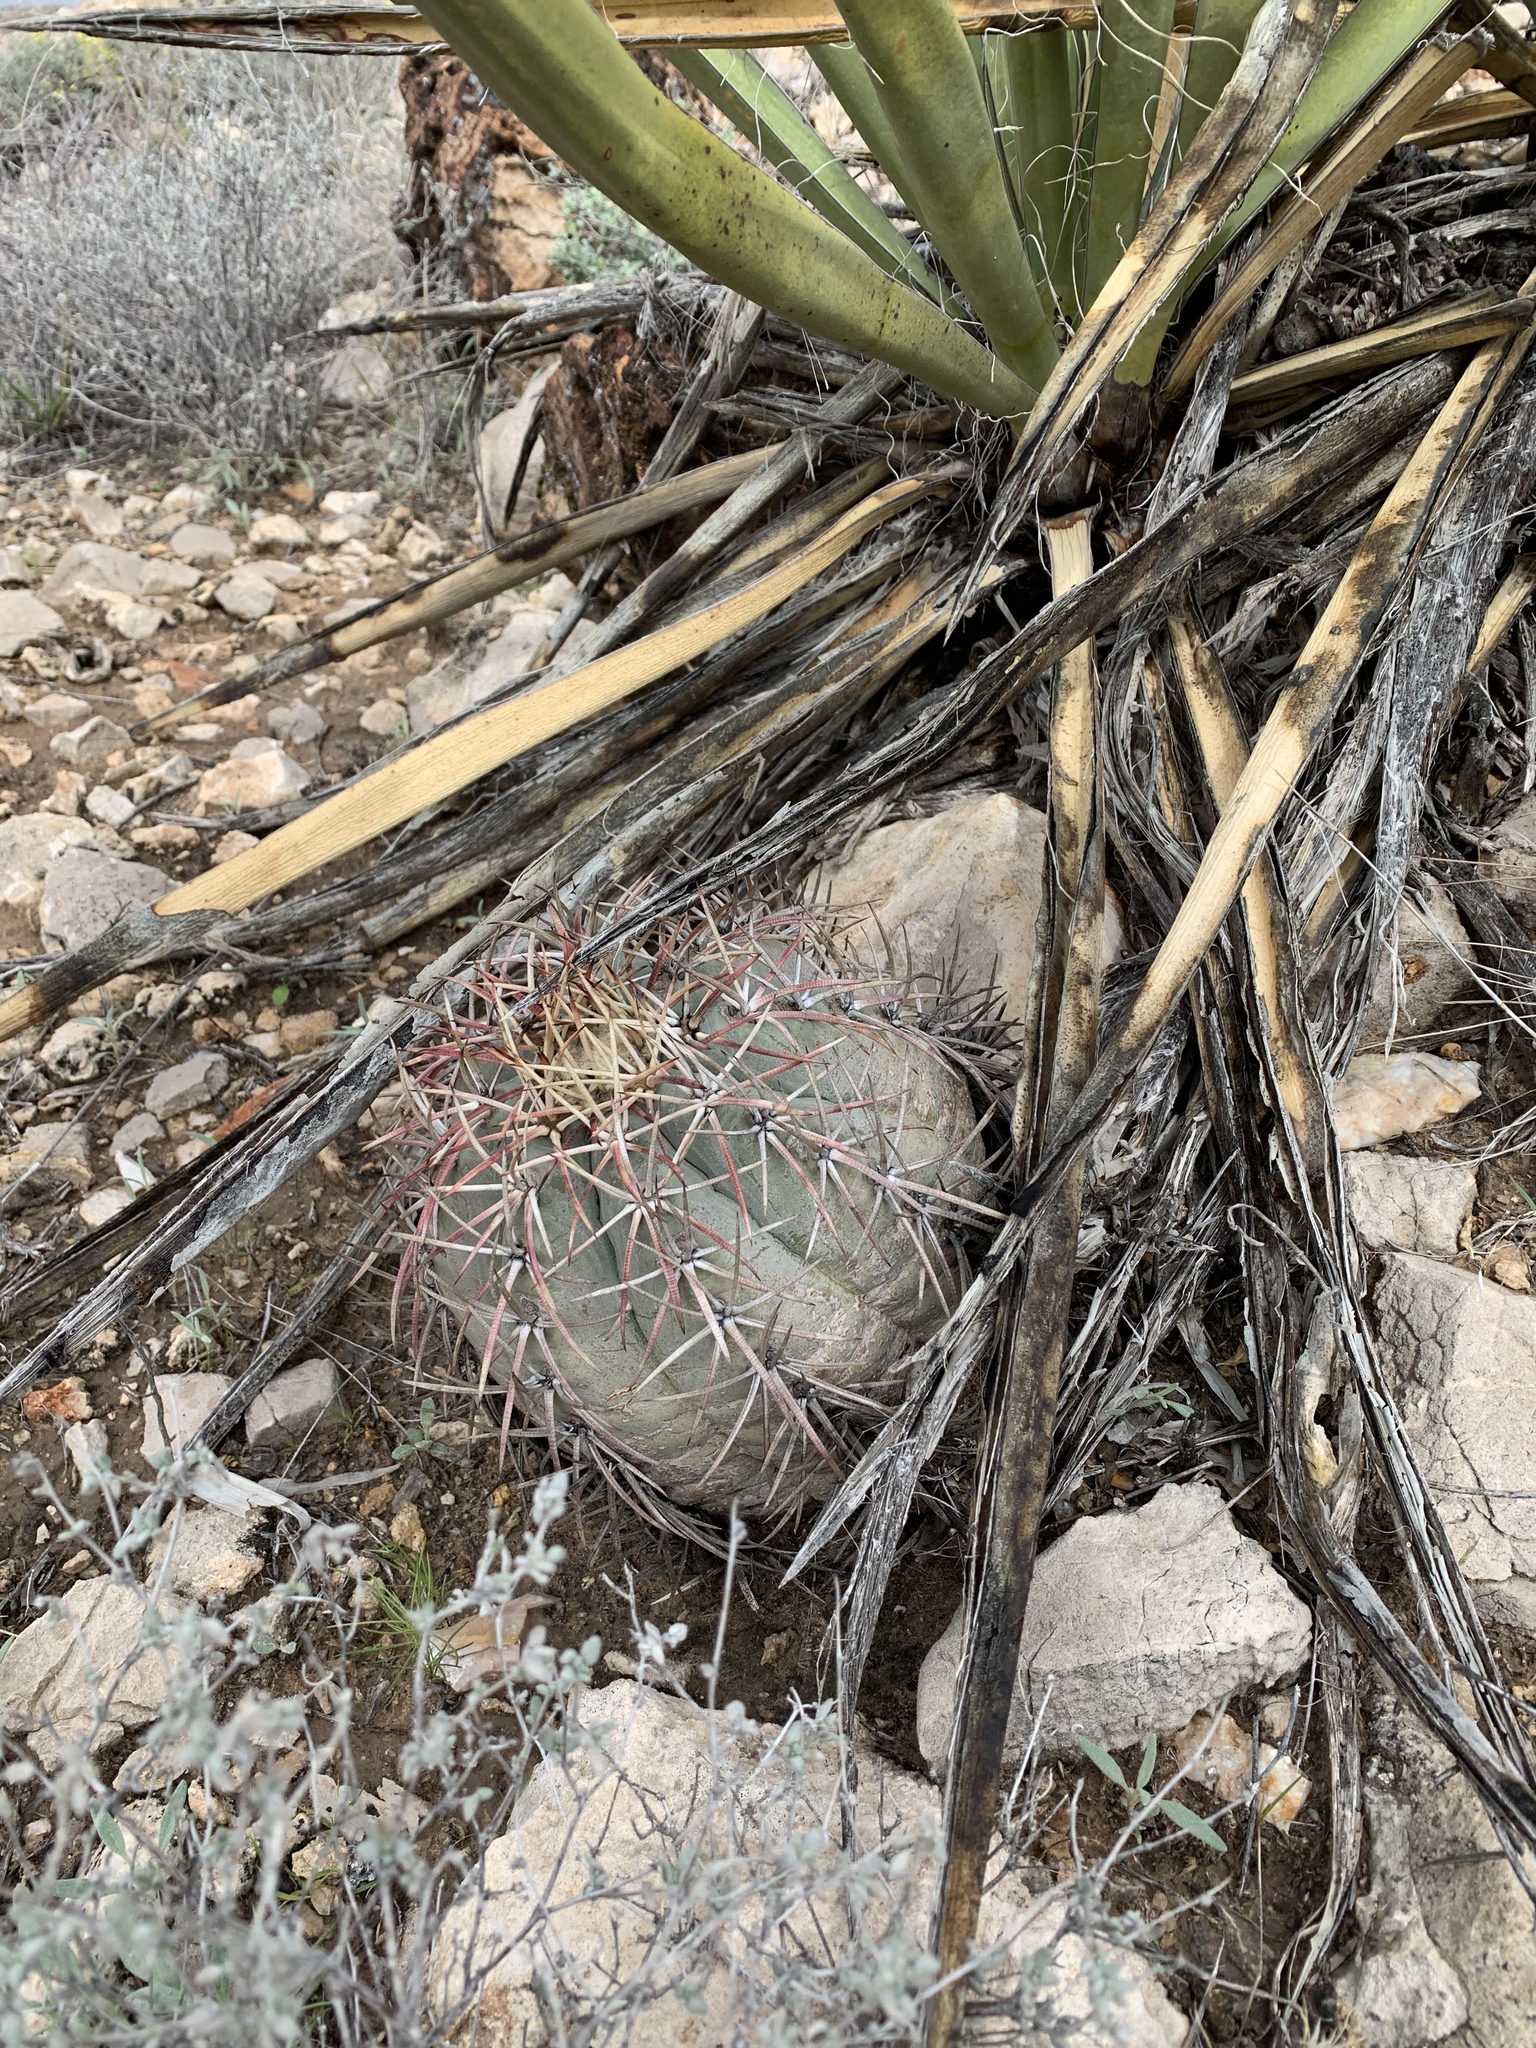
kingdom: Plantae
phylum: Tracheophyta
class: Magnoliopsida
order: Caryophyllales
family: Cactaceae
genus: Echinocactus
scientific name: Echinocactus horizonthalonius
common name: Devilshead
